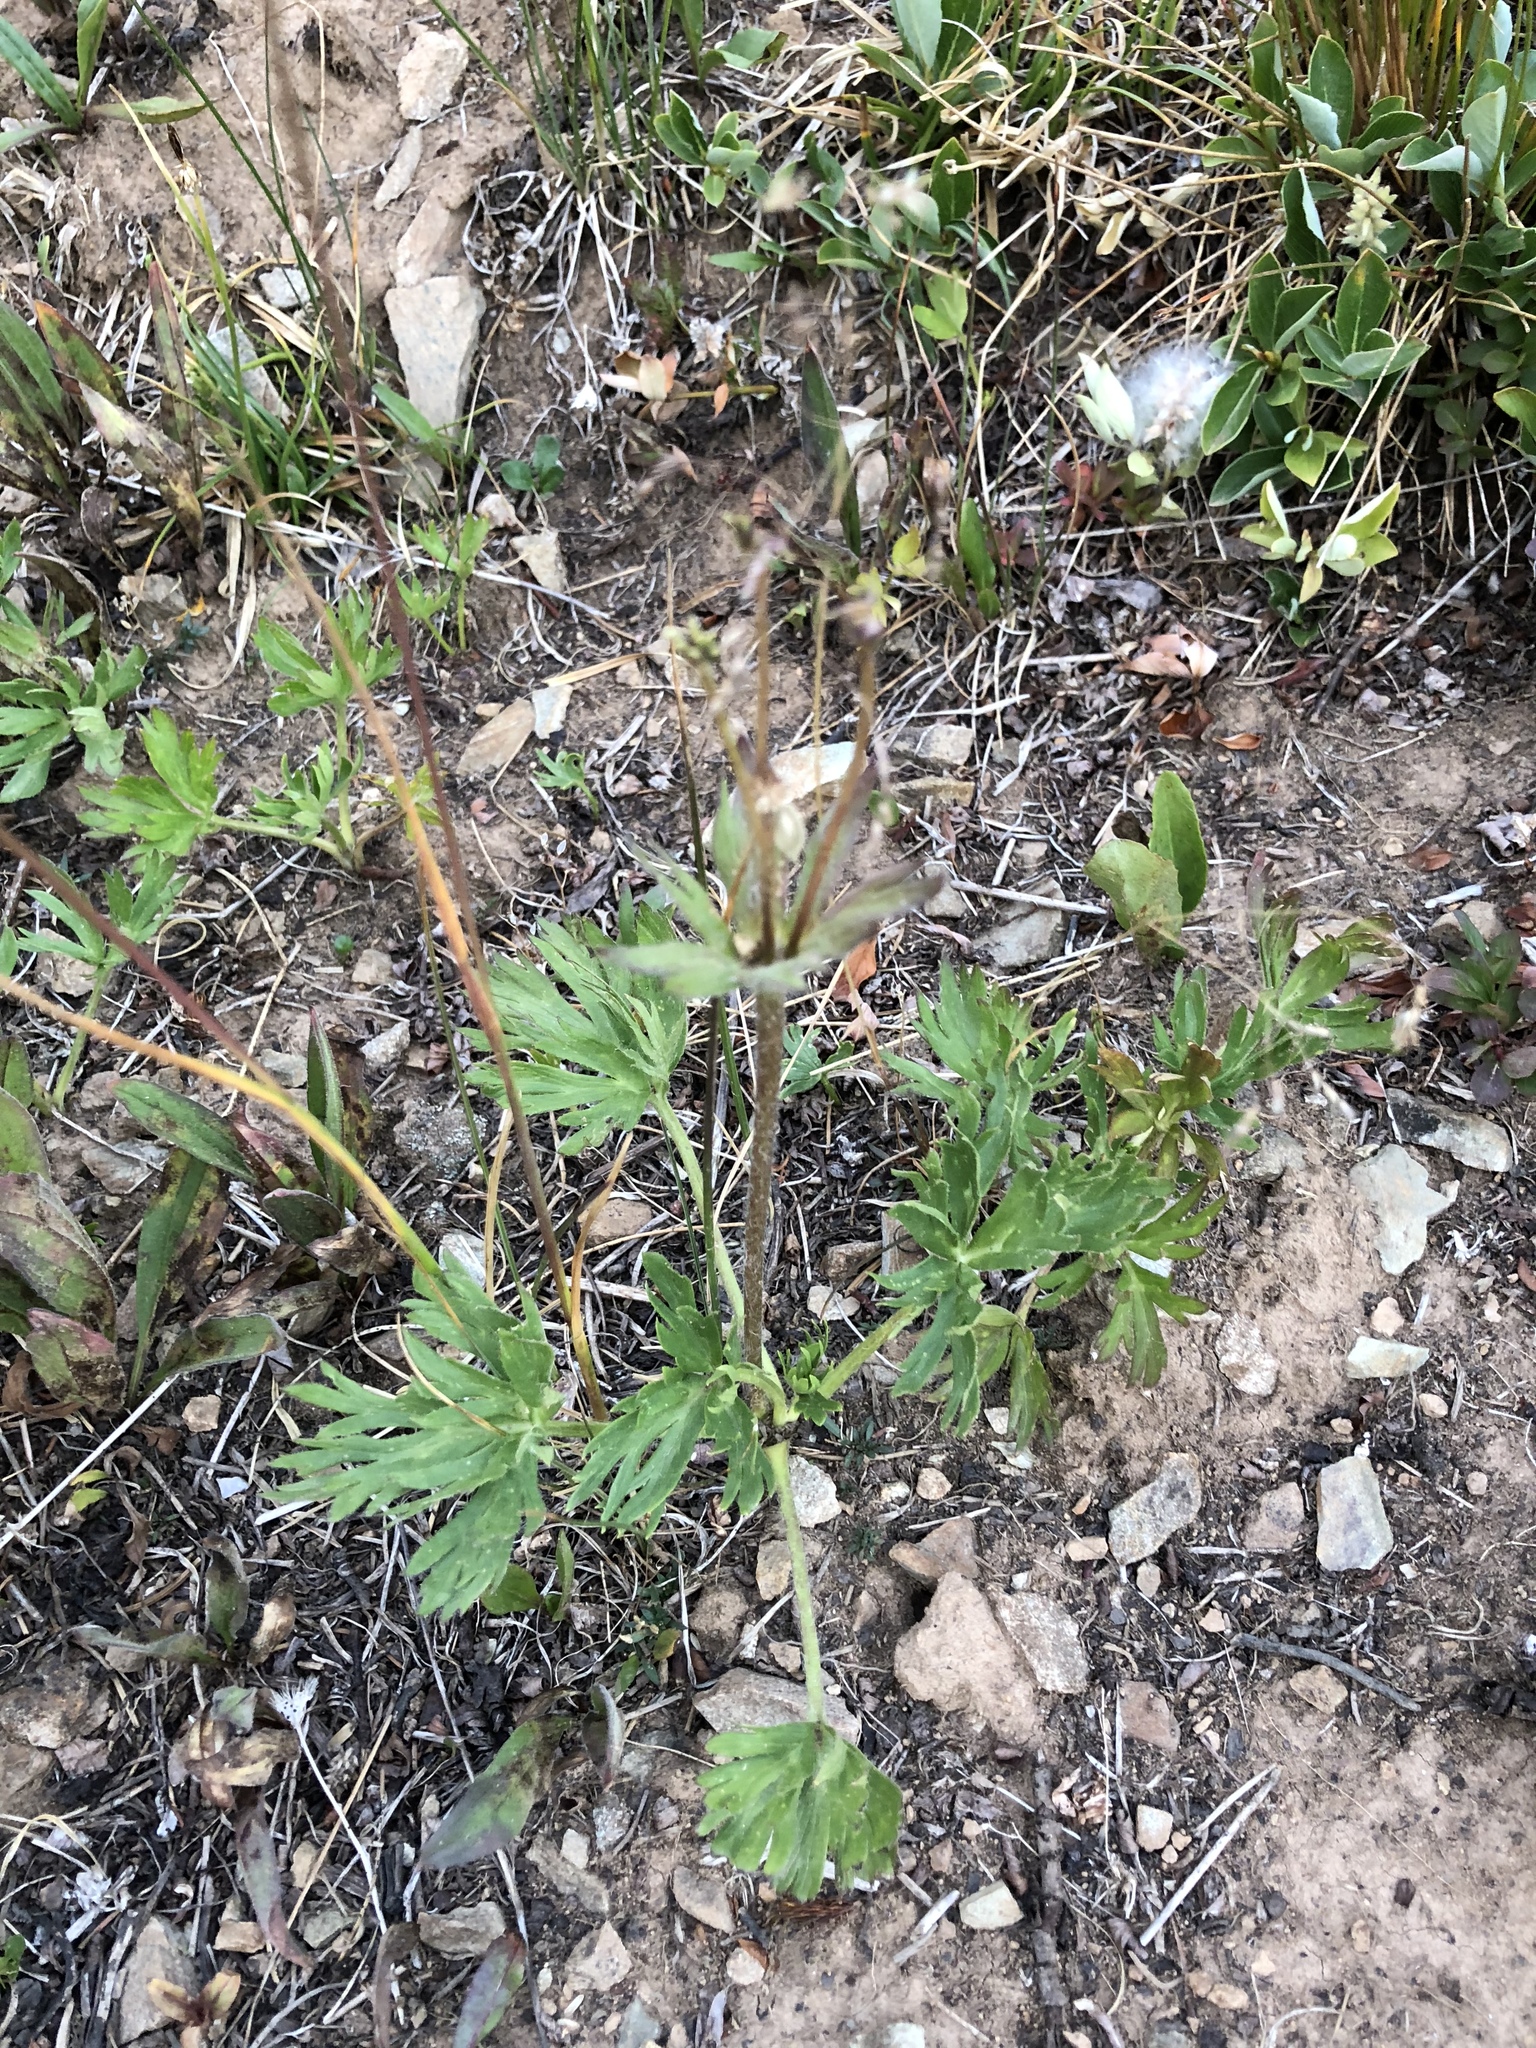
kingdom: Plantae
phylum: Tracheophyta
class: Magnoliopsida
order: Ranunculales
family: Ranunculaceae
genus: Anemonastrum
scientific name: Anemonastrum narcissiflorum
